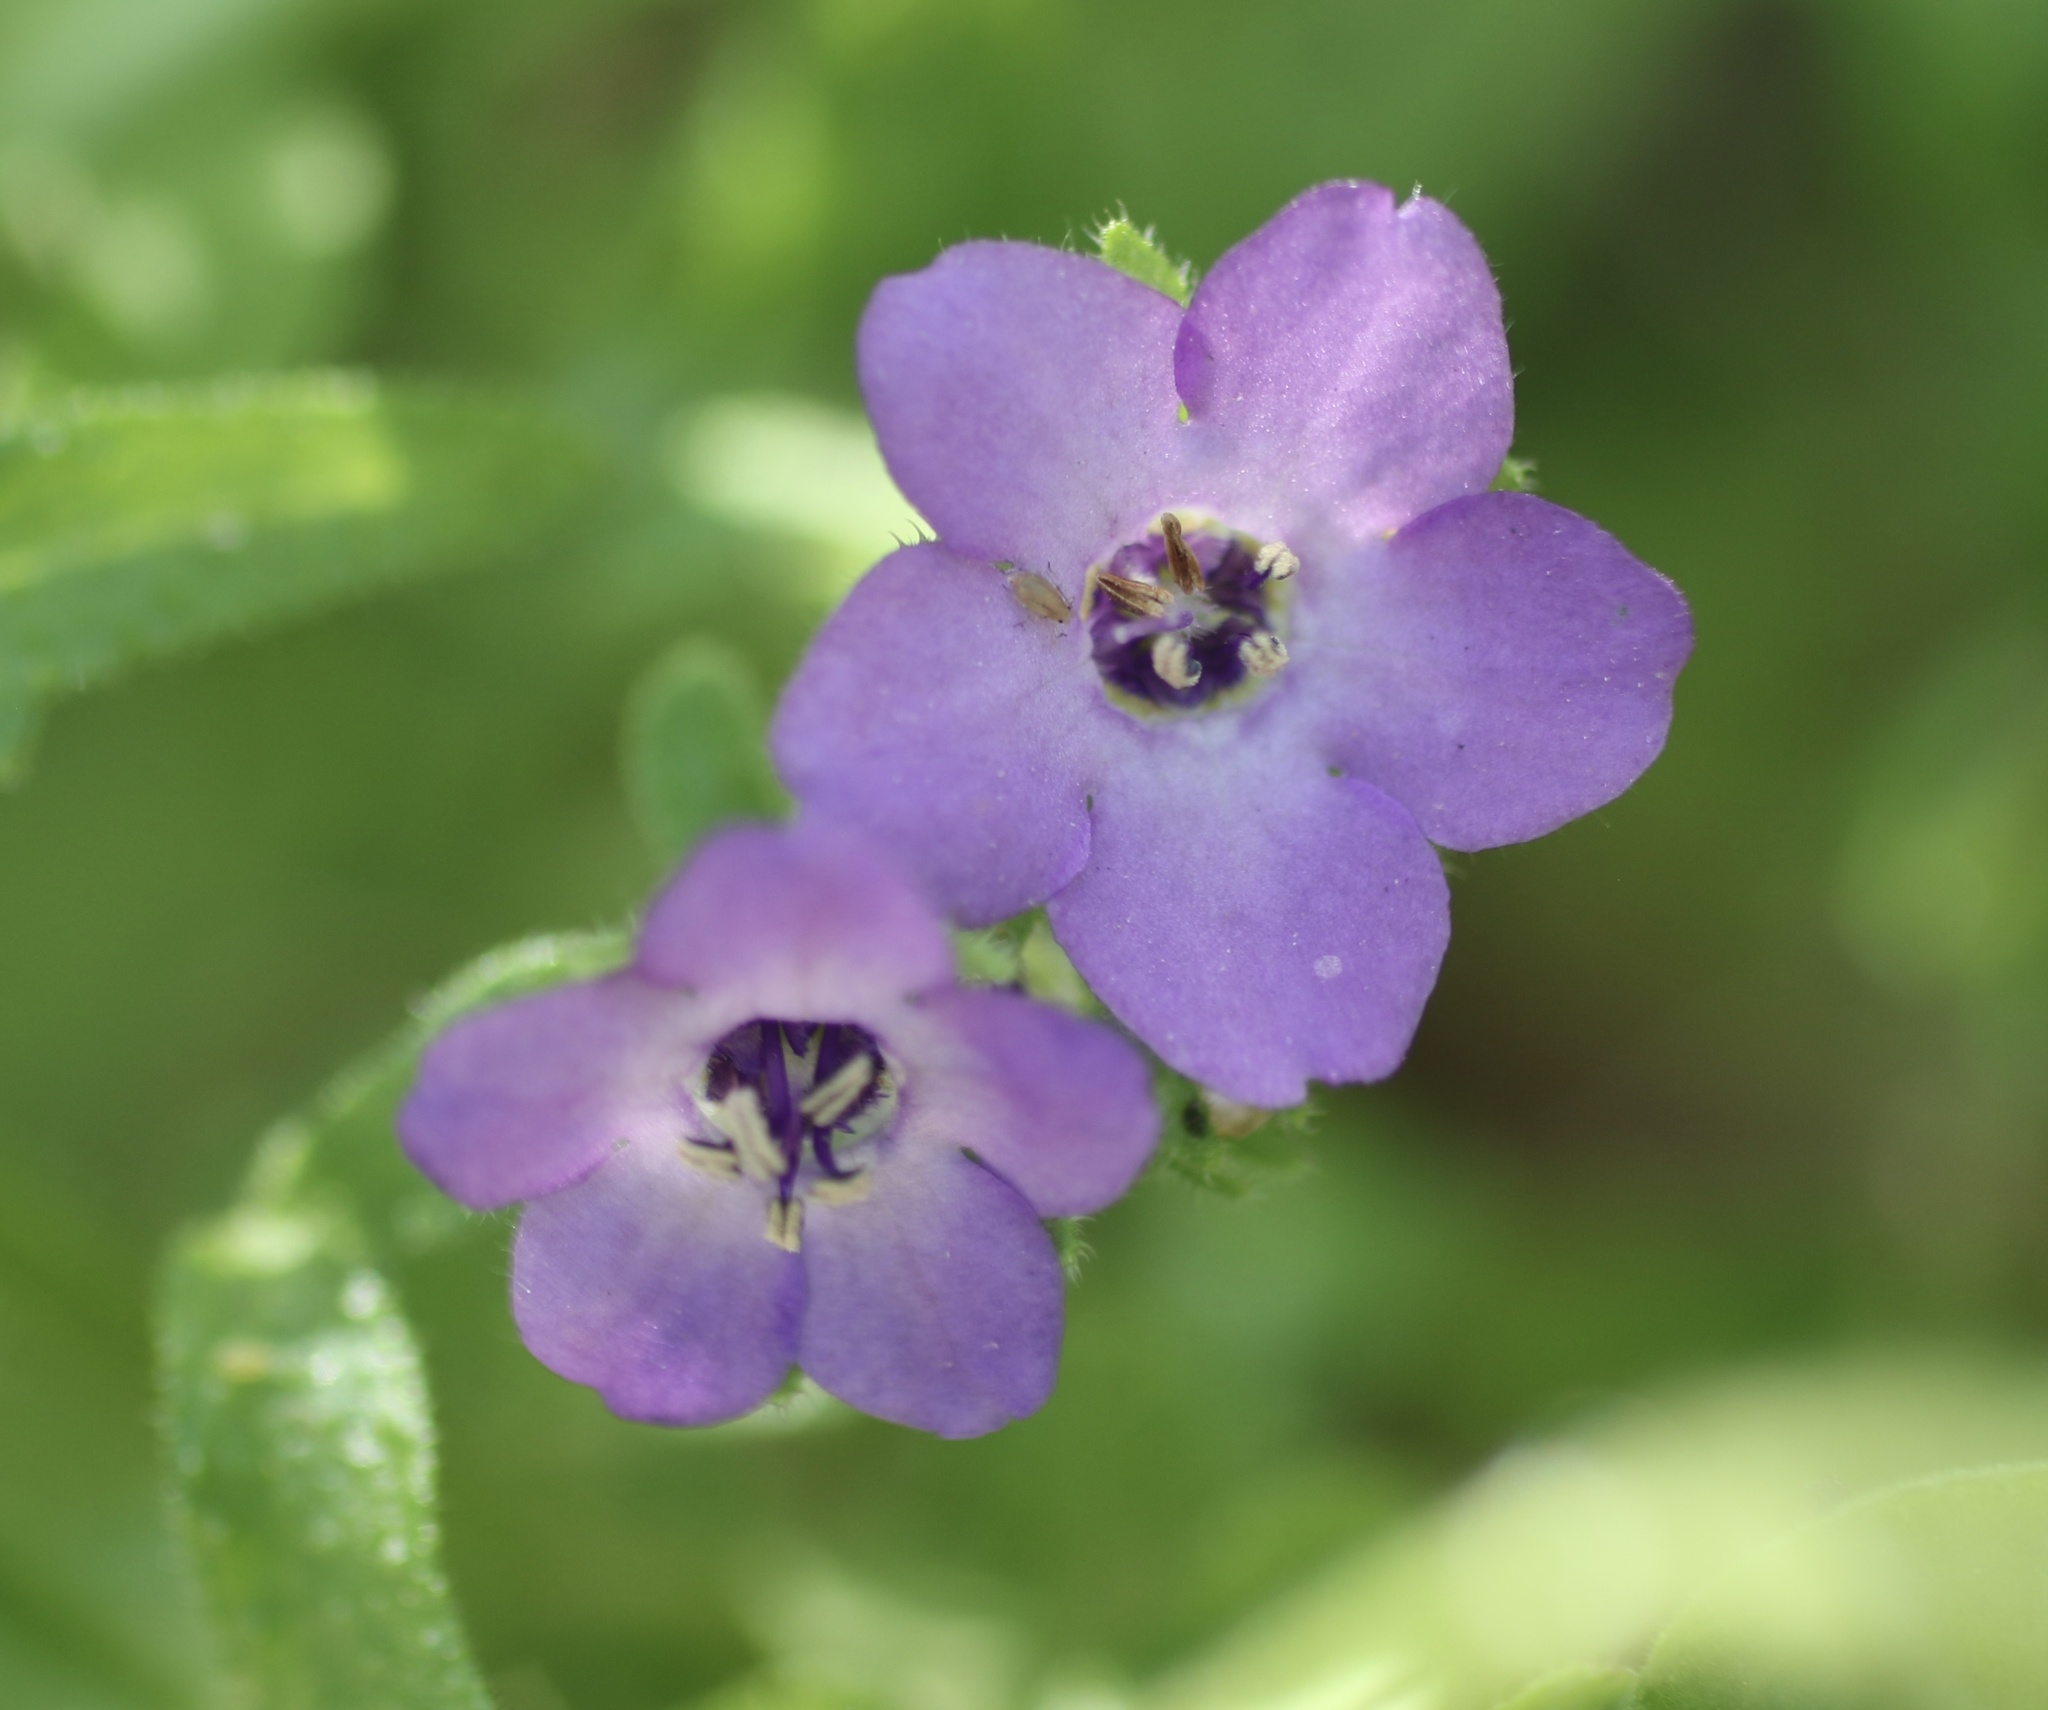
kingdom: Plantae
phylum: Tracheophyta
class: Magnoliopsida
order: Boraginales
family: Hydrophyllaceae
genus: Pholistoma
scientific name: Pholistoma auritum
